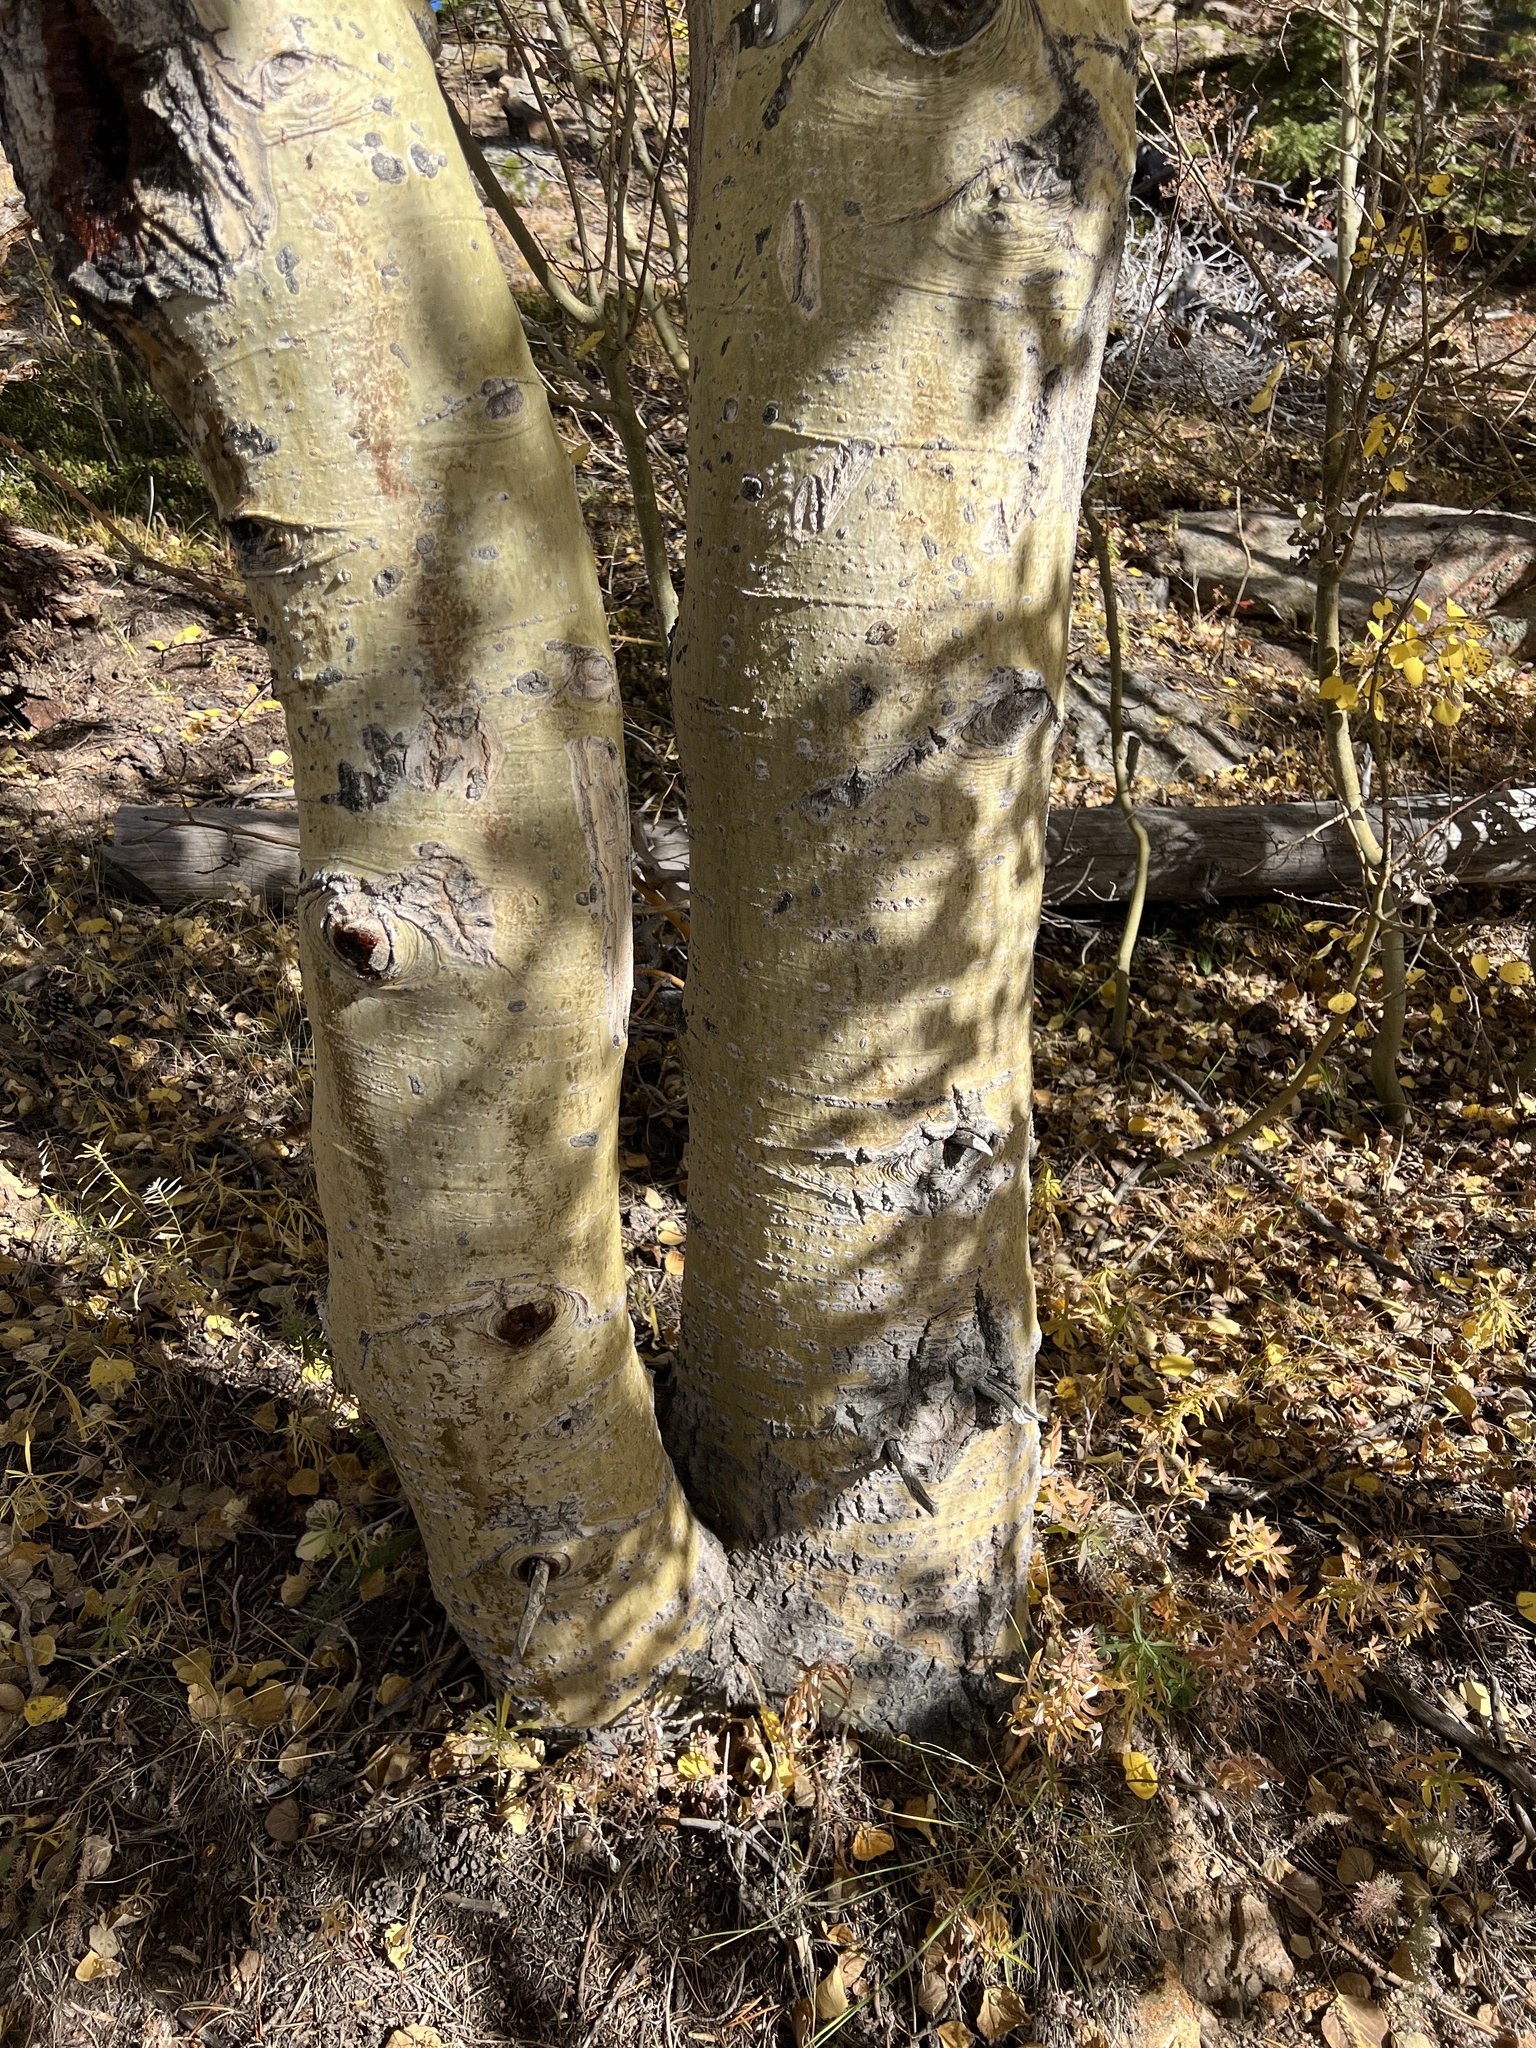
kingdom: Plantae
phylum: Tracheophyta
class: Magnoliopsida
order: Malpighiales
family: Salicaceae
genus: Populus
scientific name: Populus tremuloides
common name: Quaking aspen
